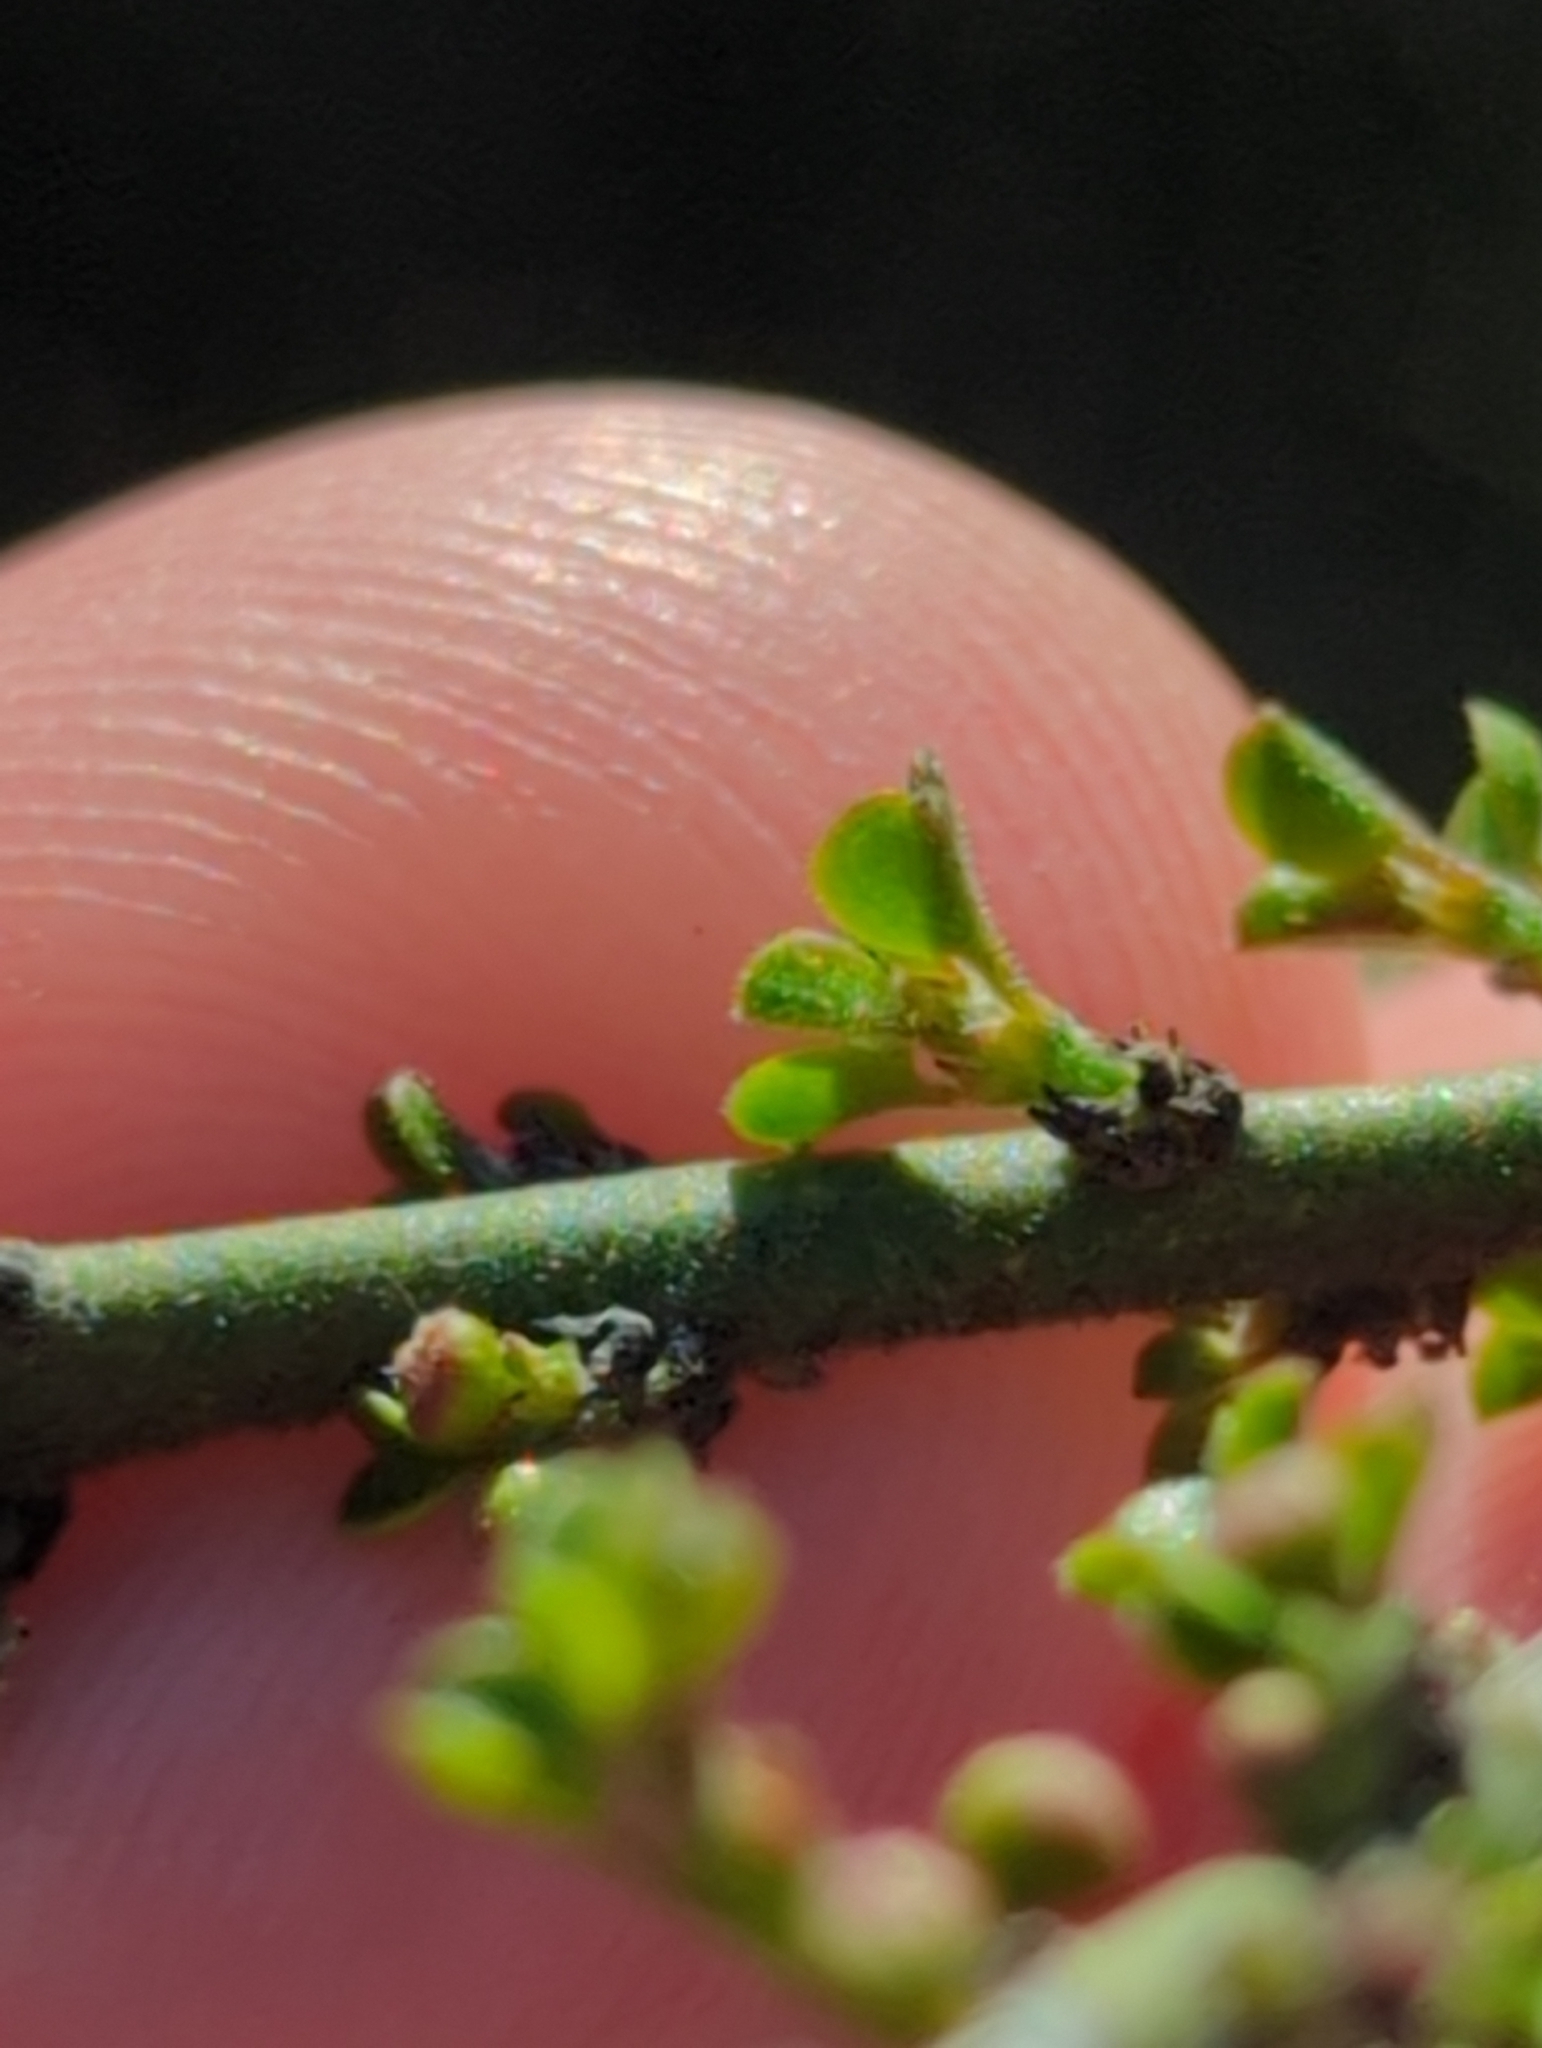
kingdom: Plantae
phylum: Tracheophyta
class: Magnoliopsida
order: Rosales
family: Rhamnaceae
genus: Adolphia
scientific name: Adolphia californica
